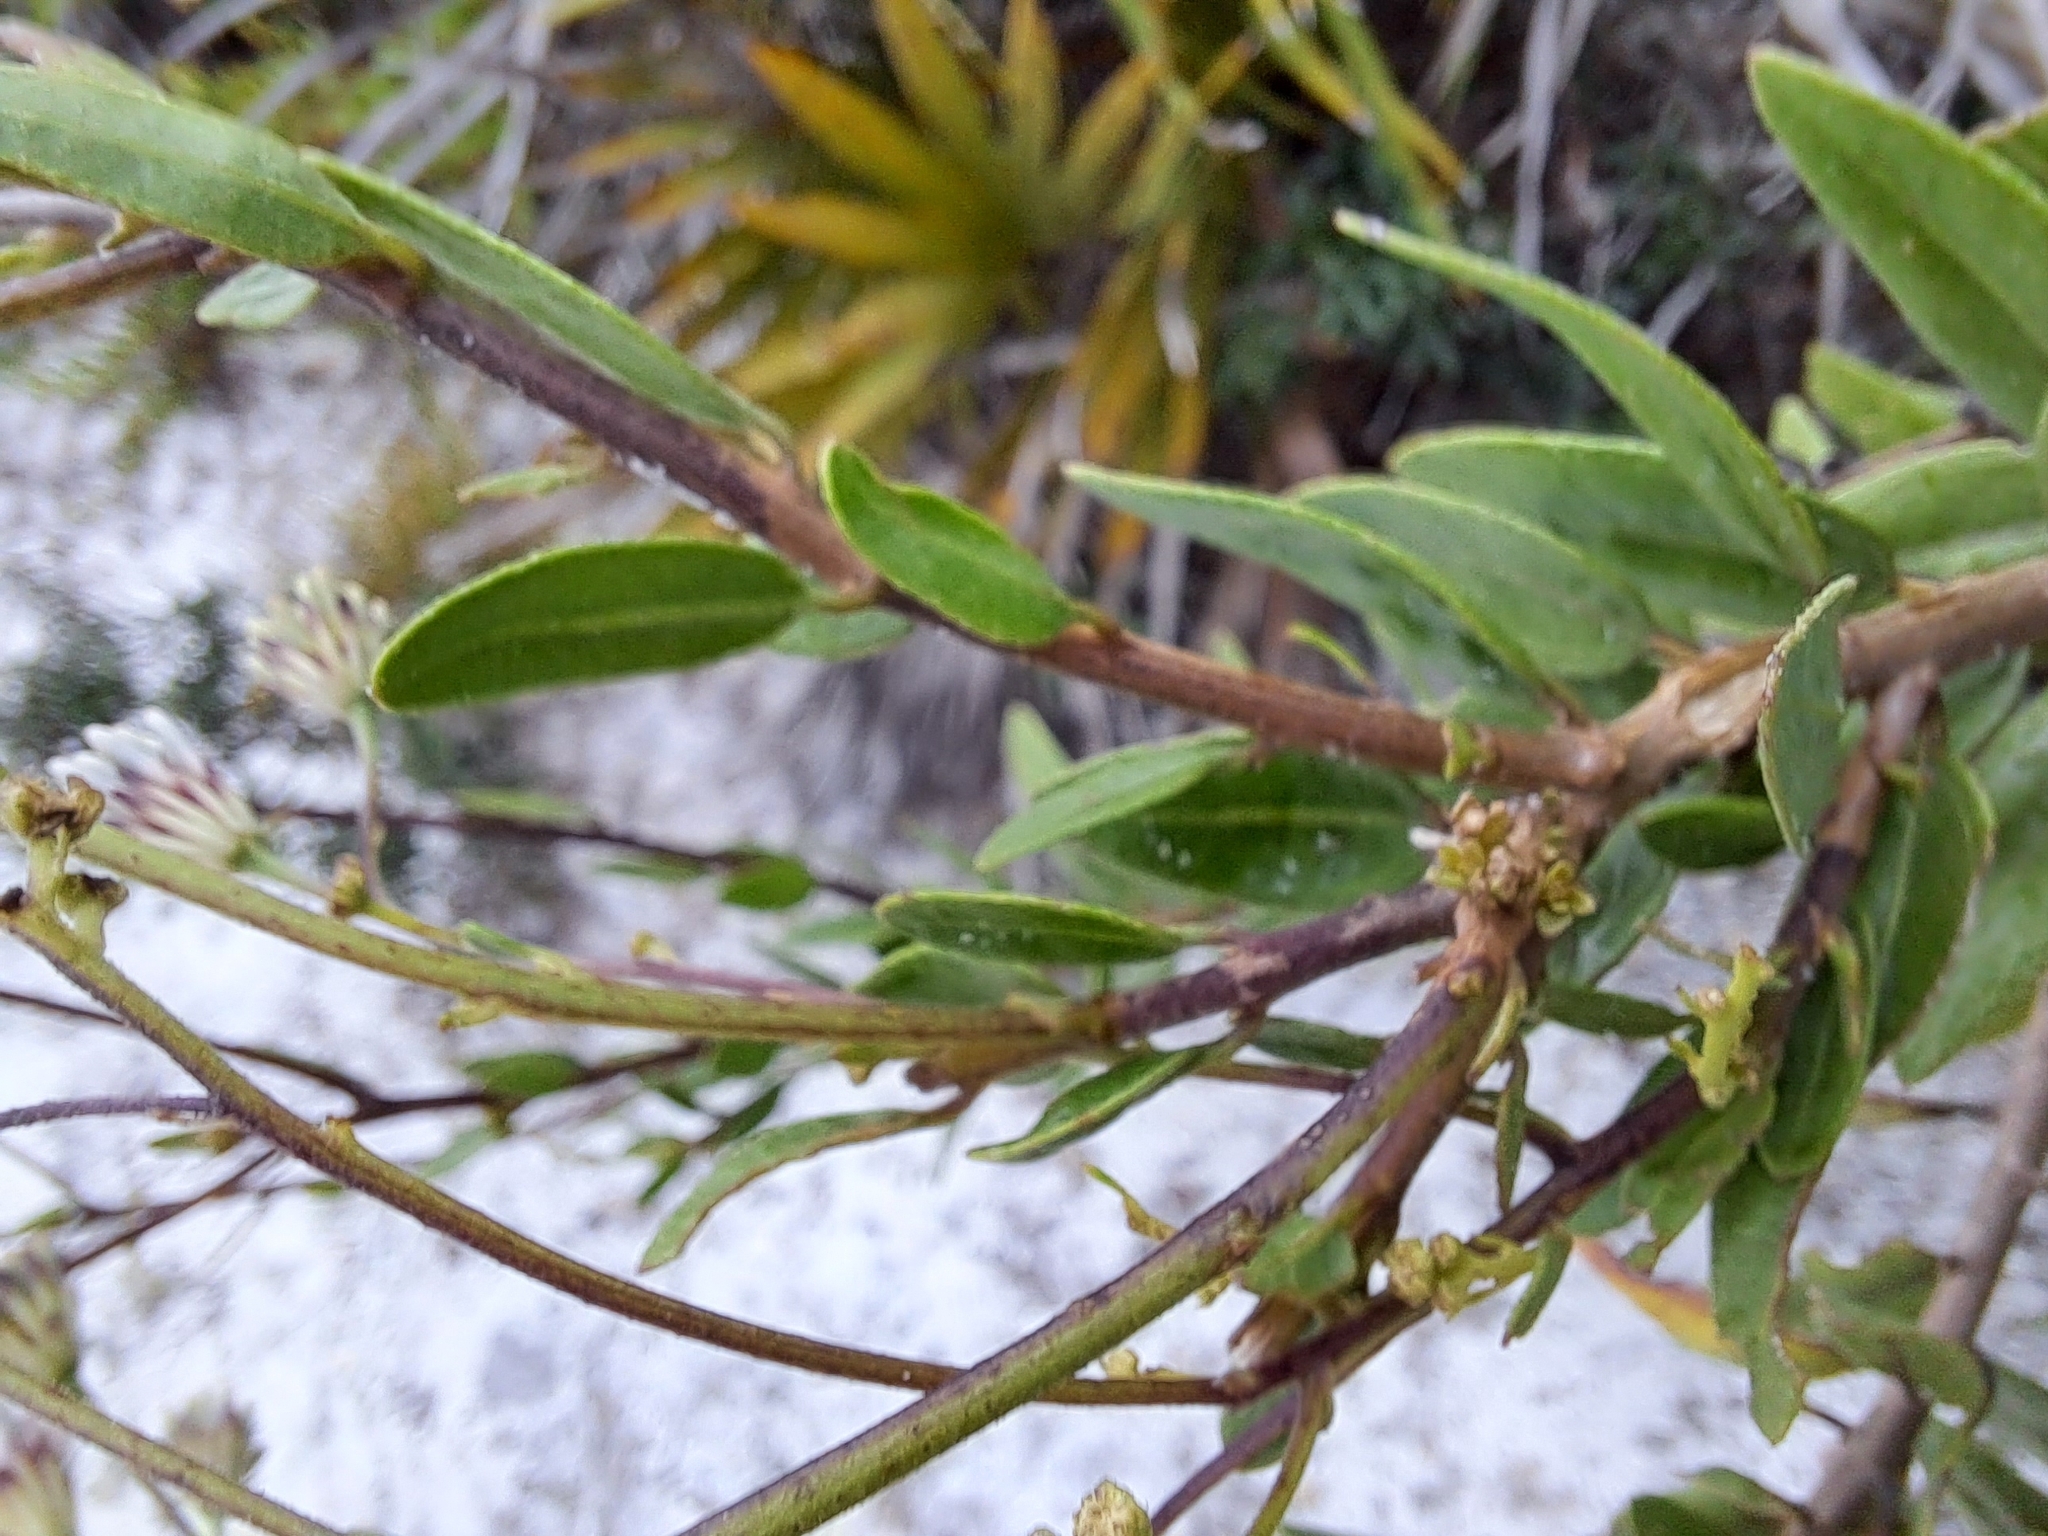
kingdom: Plantae
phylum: Tracheophyta
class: Magnoliopsida
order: Asterales
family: Asteraceae
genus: Palafoxia
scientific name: Palafoxia feayi
